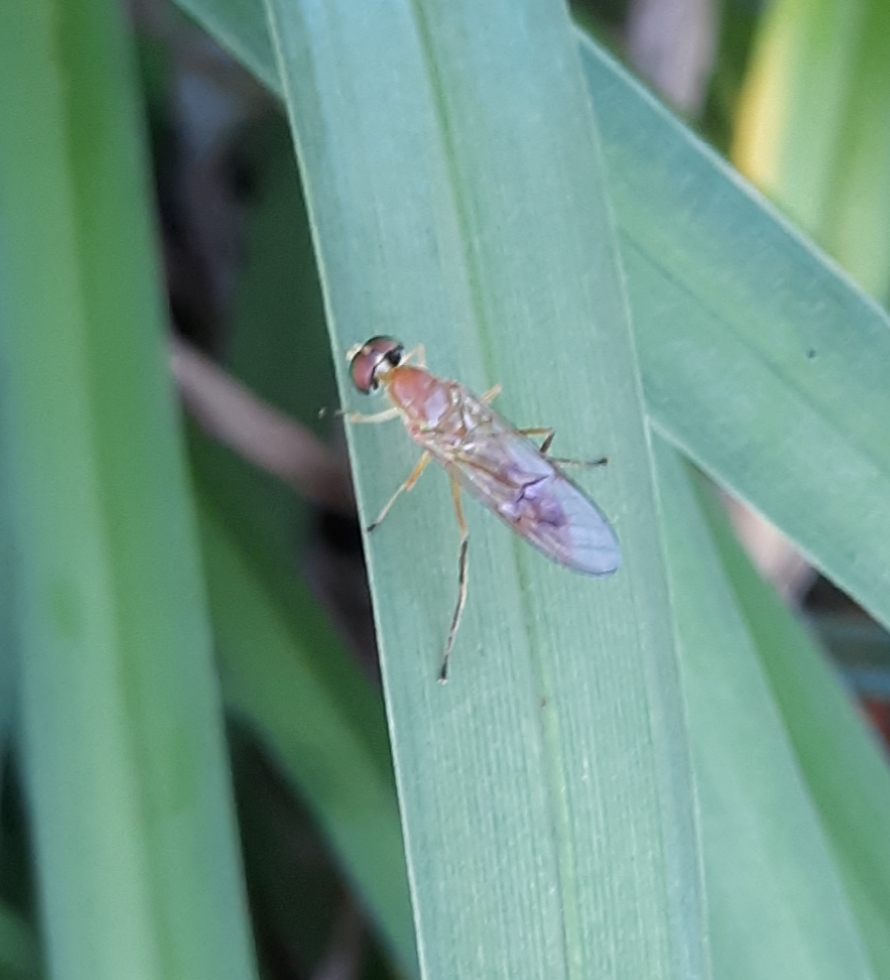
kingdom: Animalia
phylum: Arthropoda
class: Insecta
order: Diptera
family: Stratiomyidae
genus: Ptecticus
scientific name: Ptecticus trivittatus
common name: Compost fly
